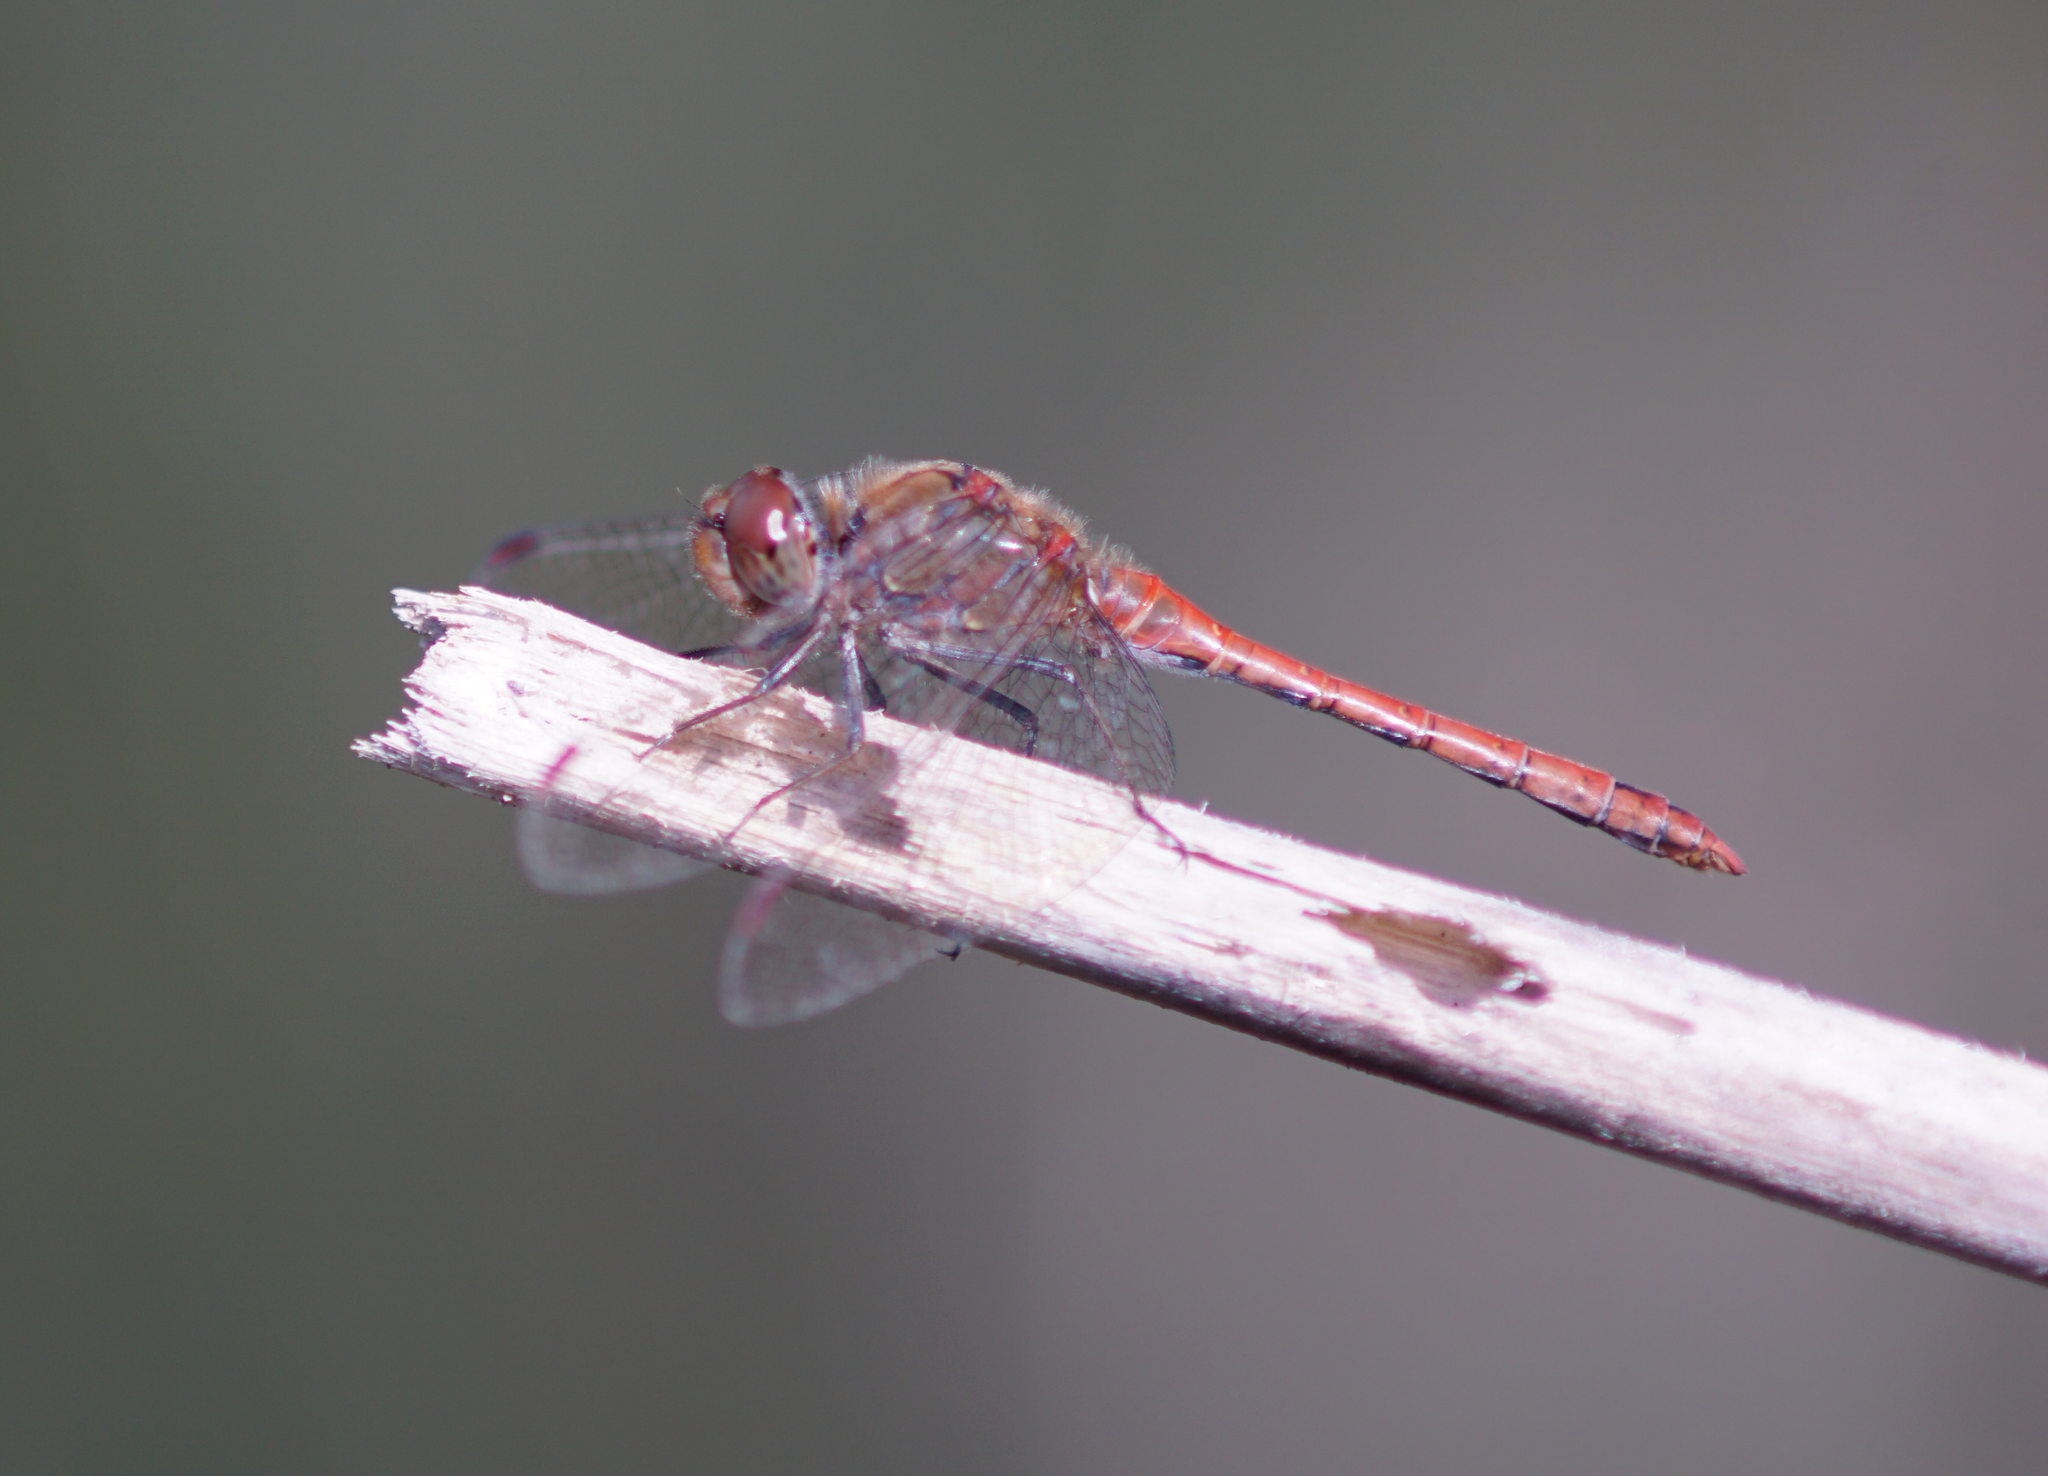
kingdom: Animalia
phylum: Arthropoda
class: Insecta
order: Odonata
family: Libellulidae
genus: Sympetrum
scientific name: Sympetrum striolatum
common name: Common darter
